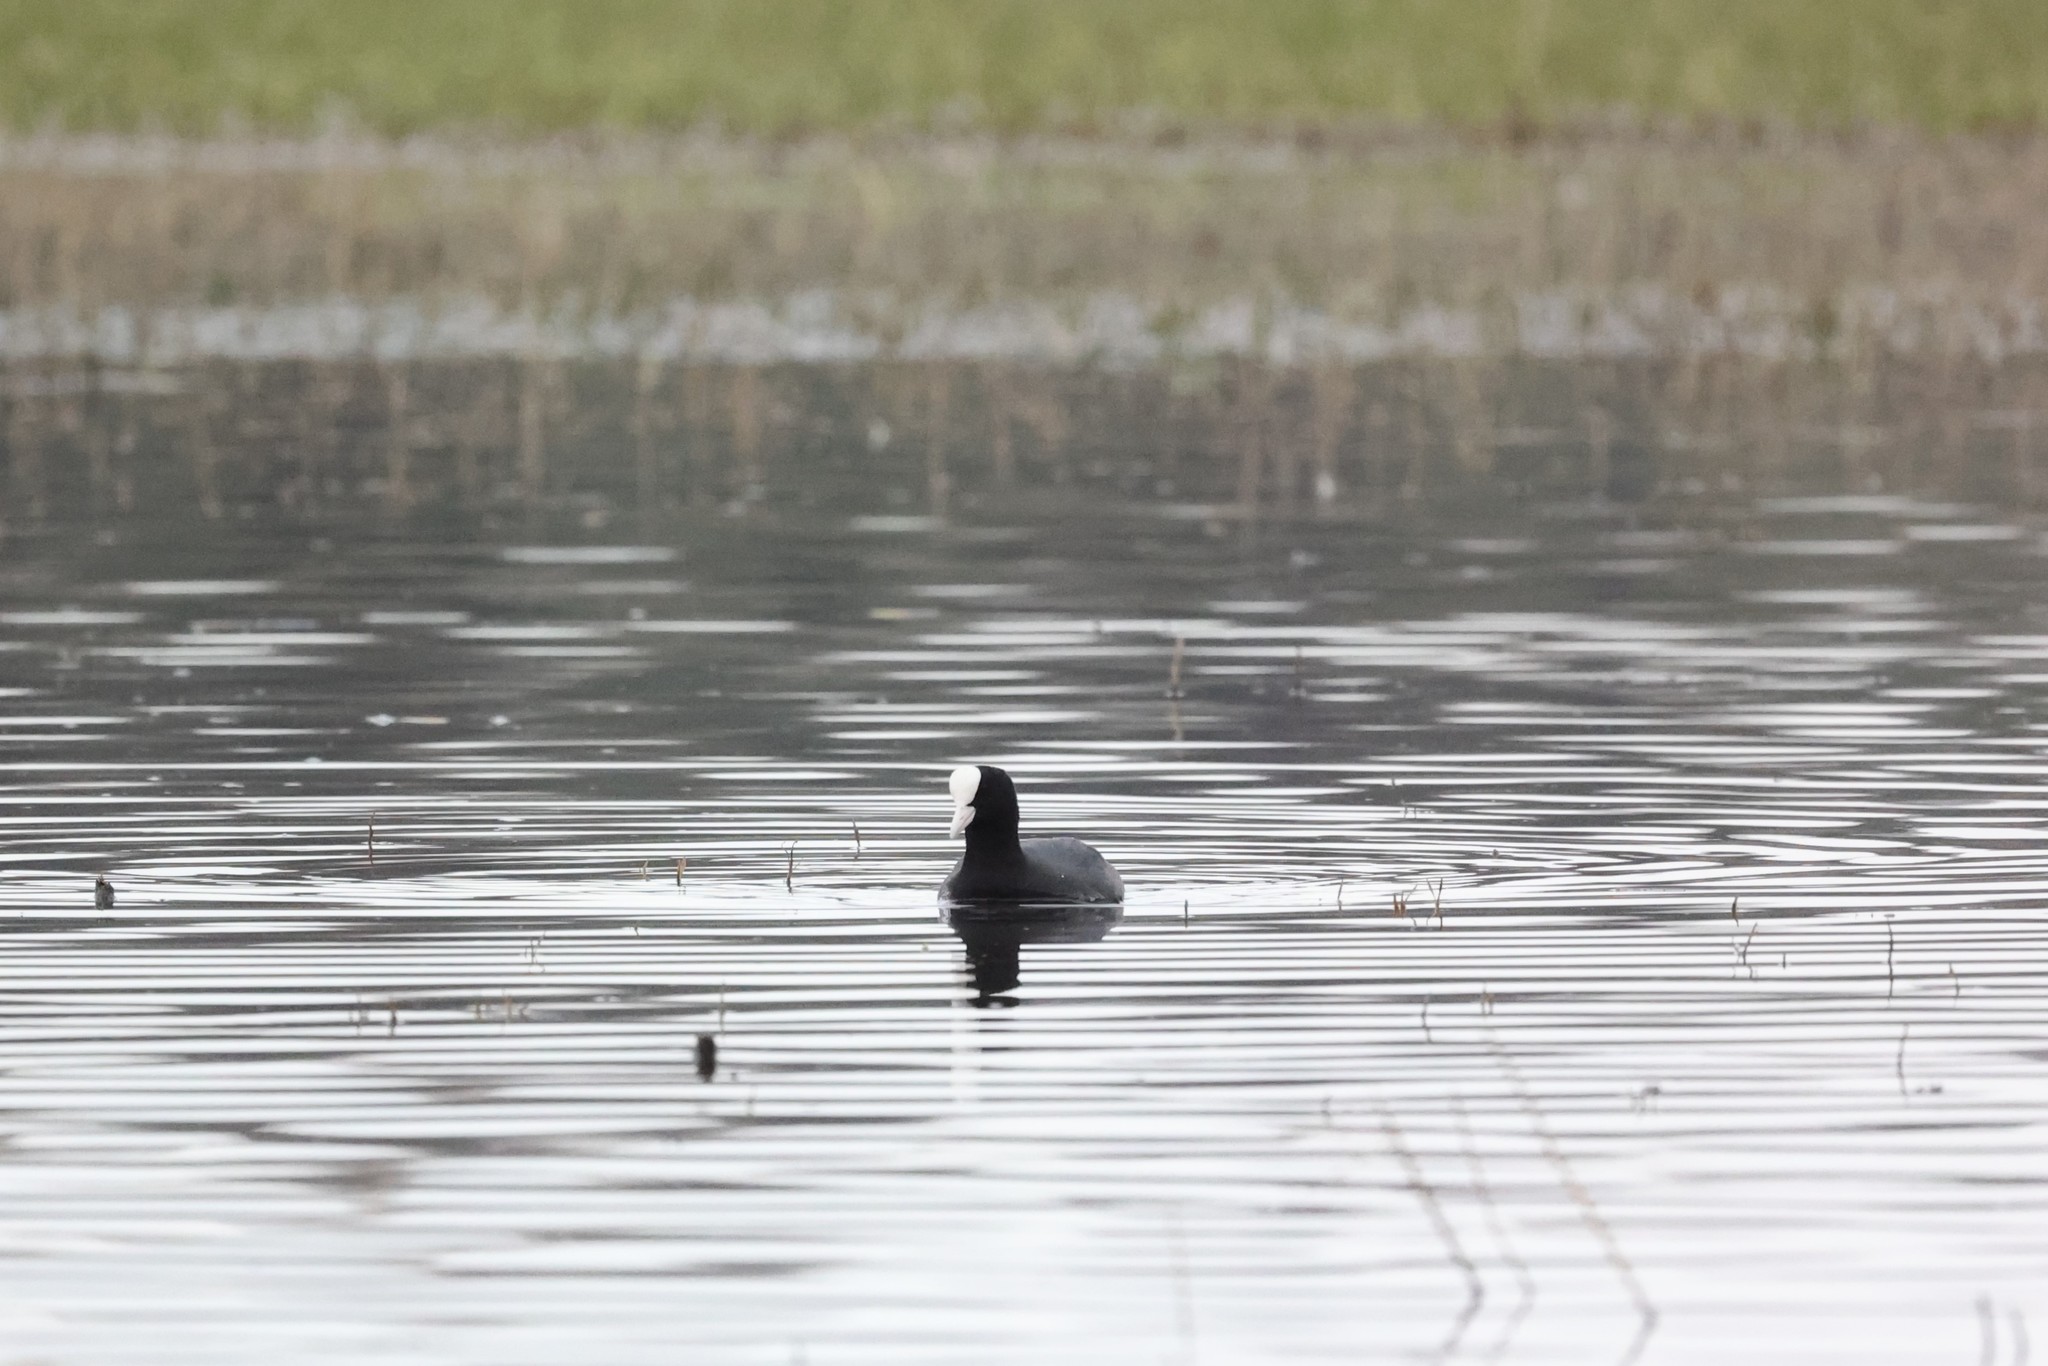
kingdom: Animalia
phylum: Chordata
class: Aves
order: Gruiformes
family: Rallidae
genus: Fulica
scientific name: Fulica atra
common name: Eurasian coot
